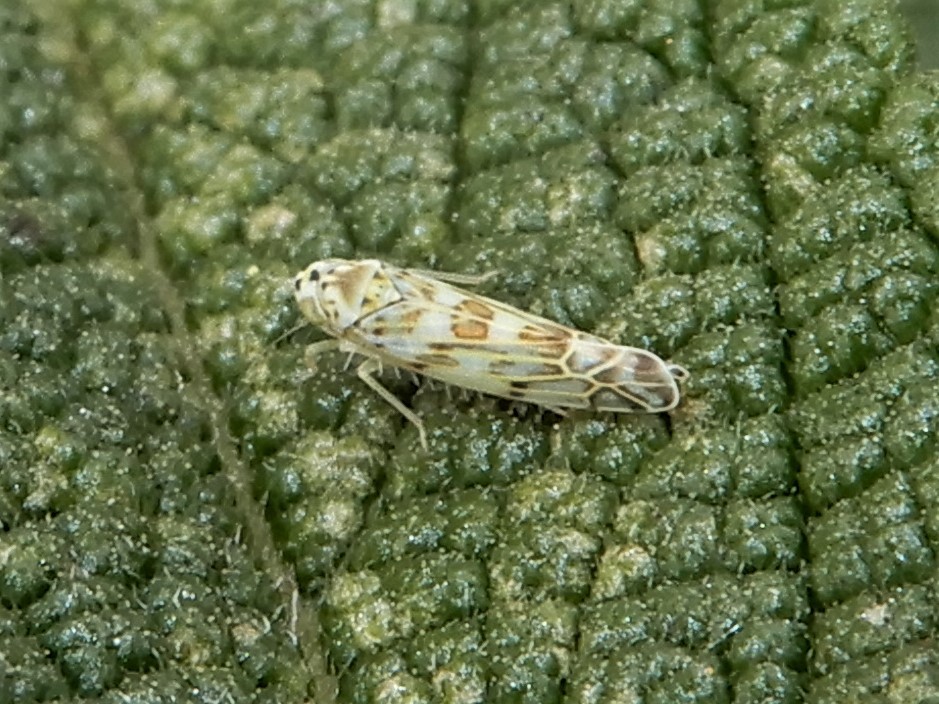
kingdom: Animalia
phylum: Arthropoda
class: Insecta
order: Hemiptera
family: Cicadellidae
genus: Eupteryx
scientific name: Eupteryx melissae
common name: Herb leafhopper
